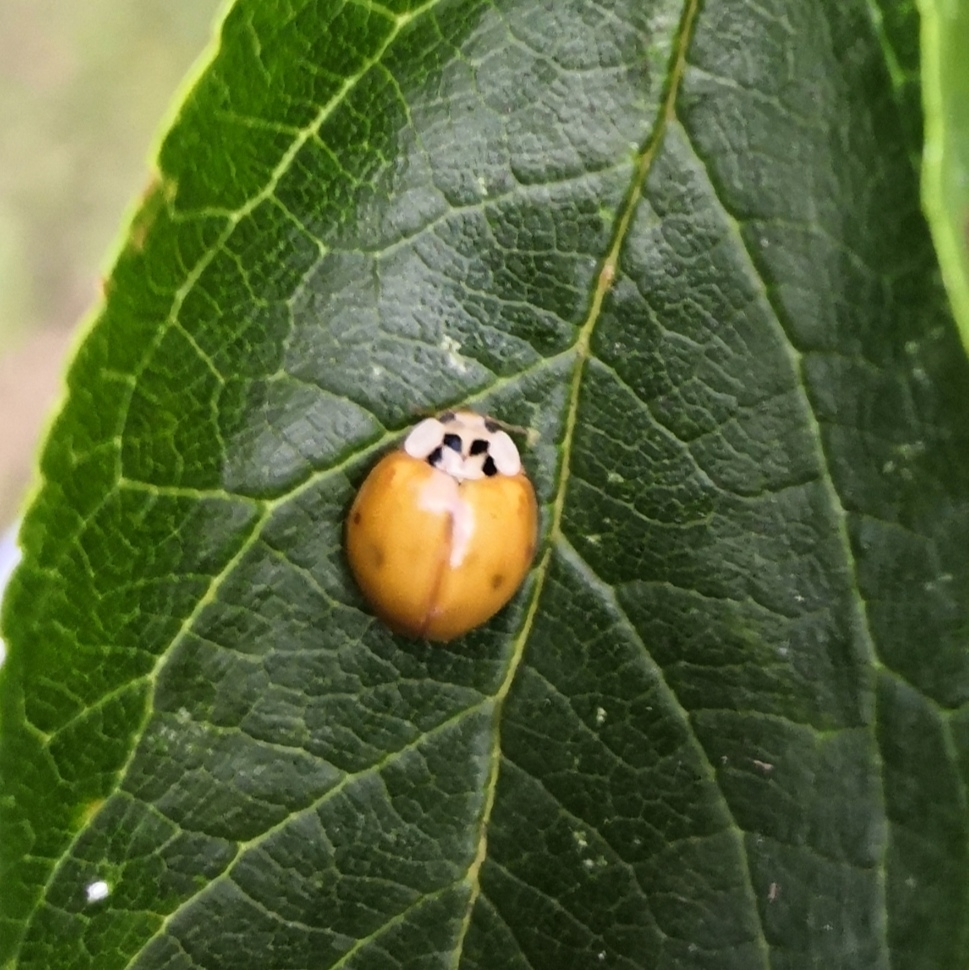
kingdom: Animalia
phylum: Arthropoda
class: Insecta
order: Coleoptera
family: Coccinellidae
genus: Harmonia
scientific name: Harmonia axyridis
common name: Harlequin ladybird
